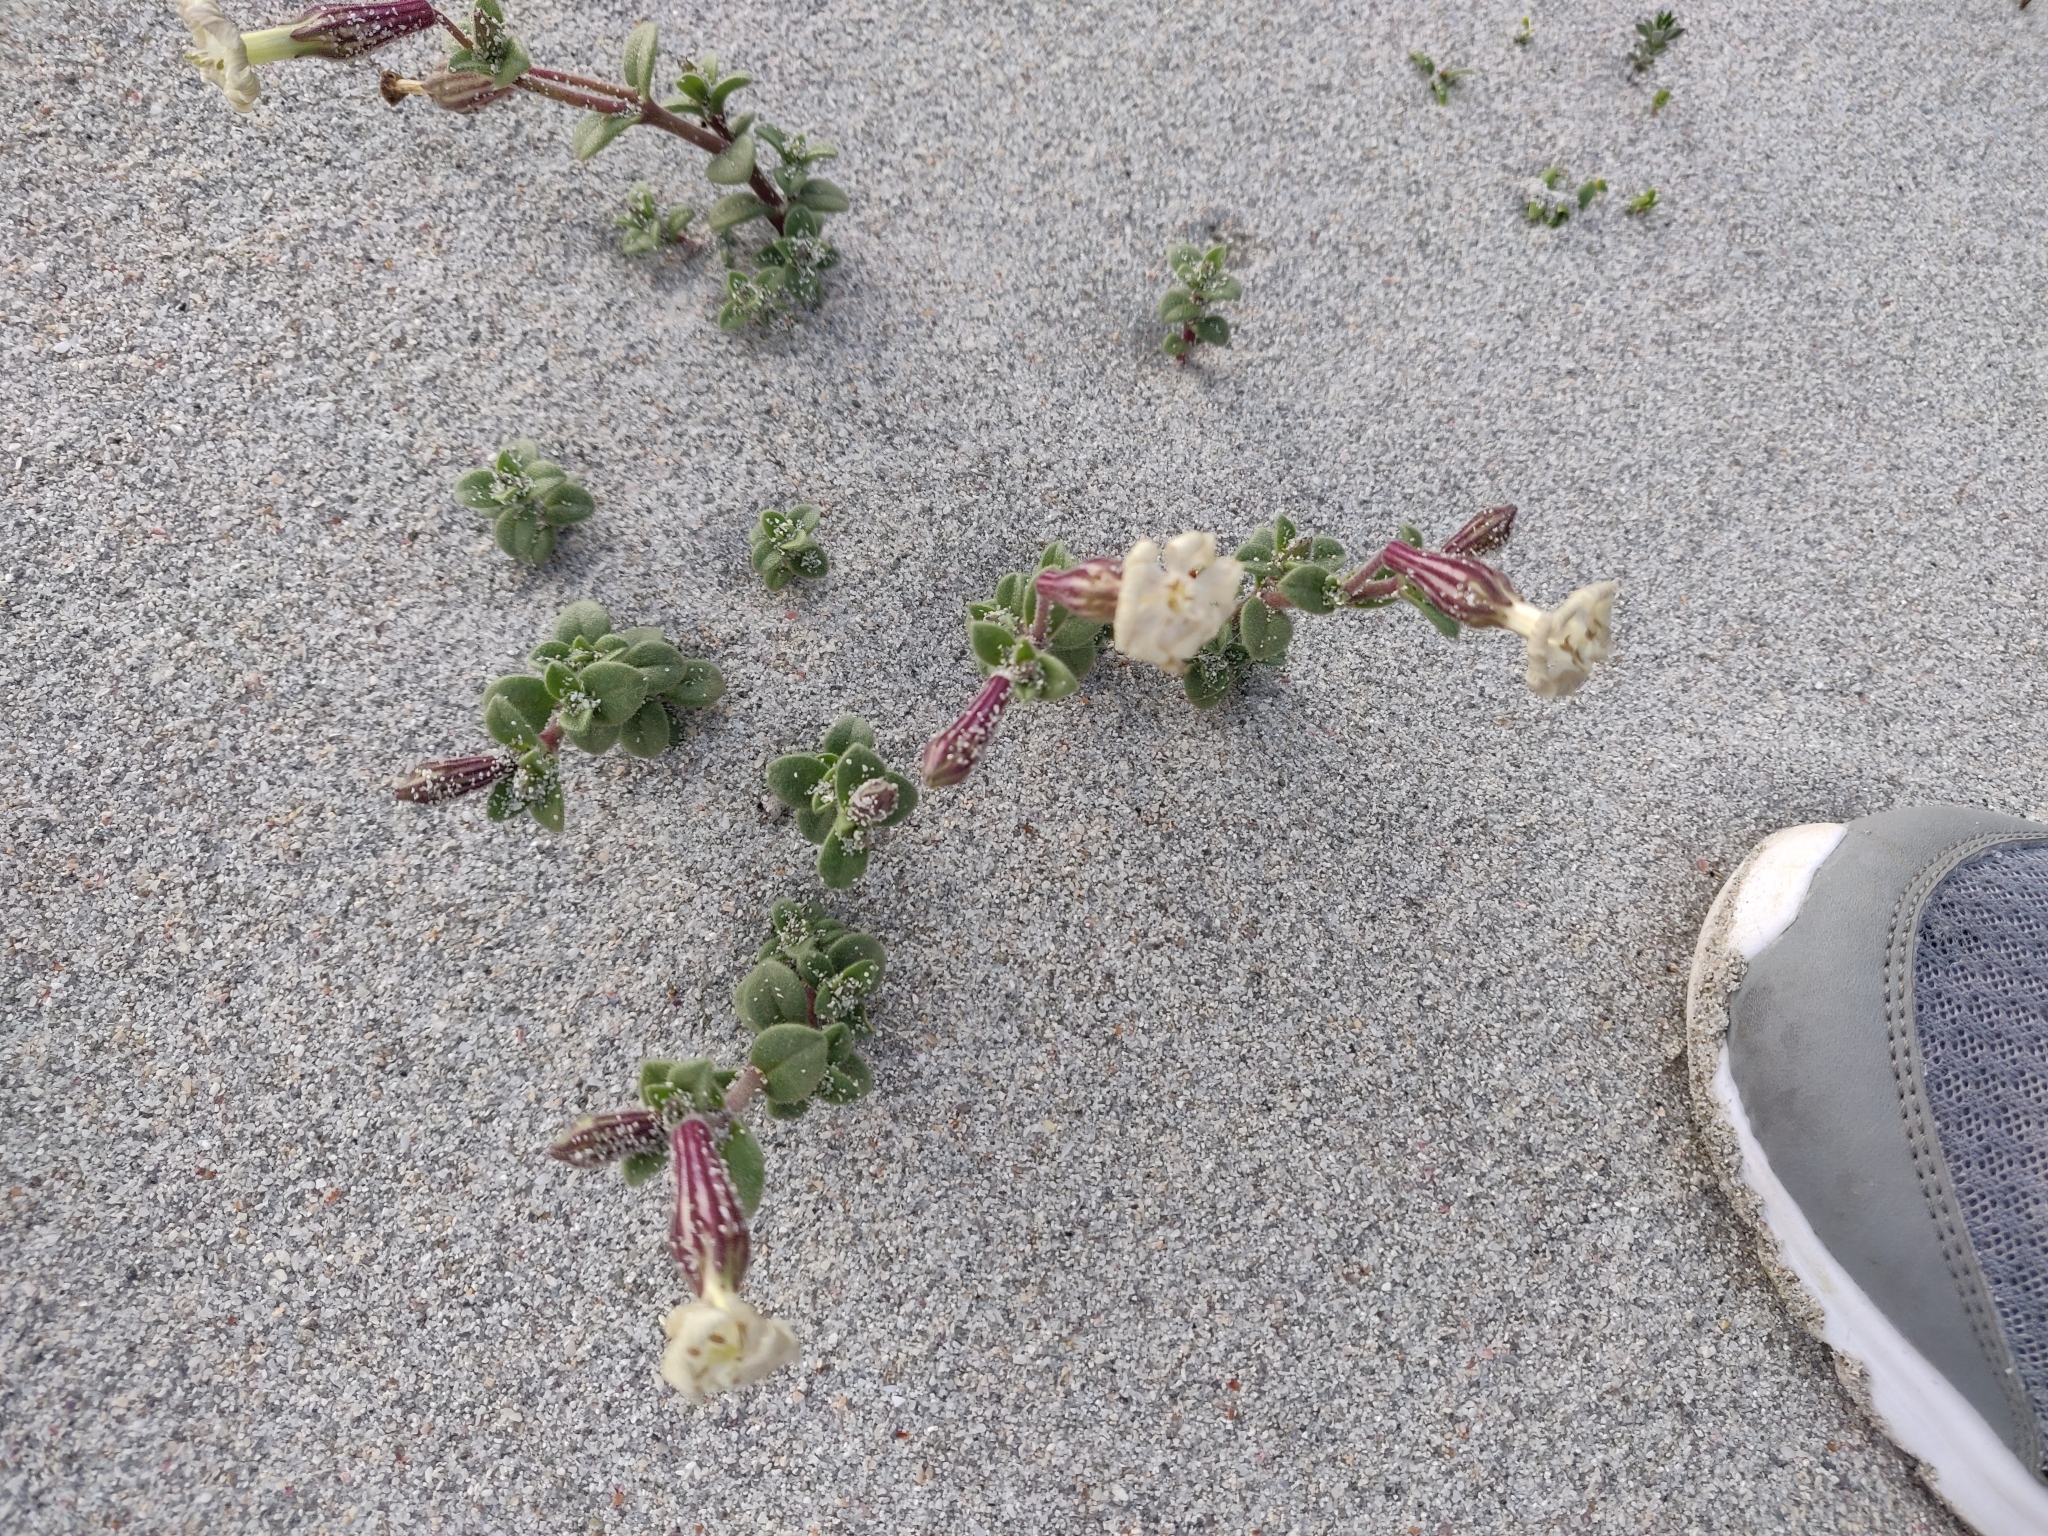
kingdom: Plantae
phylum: Tracheophyta
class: Magnoliopsida
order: Caryophyllales
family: Caryophyllaceae
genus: Silene
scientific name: Silene succulenta
